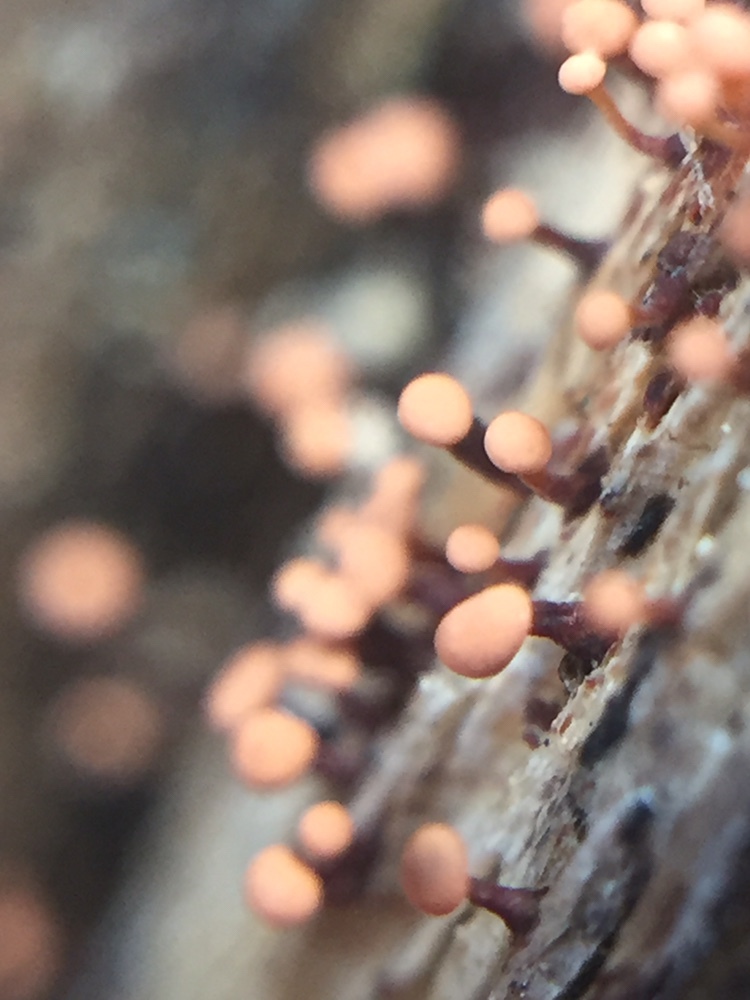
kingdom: Fungi
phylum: Ascomycota
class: Sordariomycetes
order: Hypocreales
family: Nectriaceae
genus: Murinectria
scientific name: Murinectria polythalama
